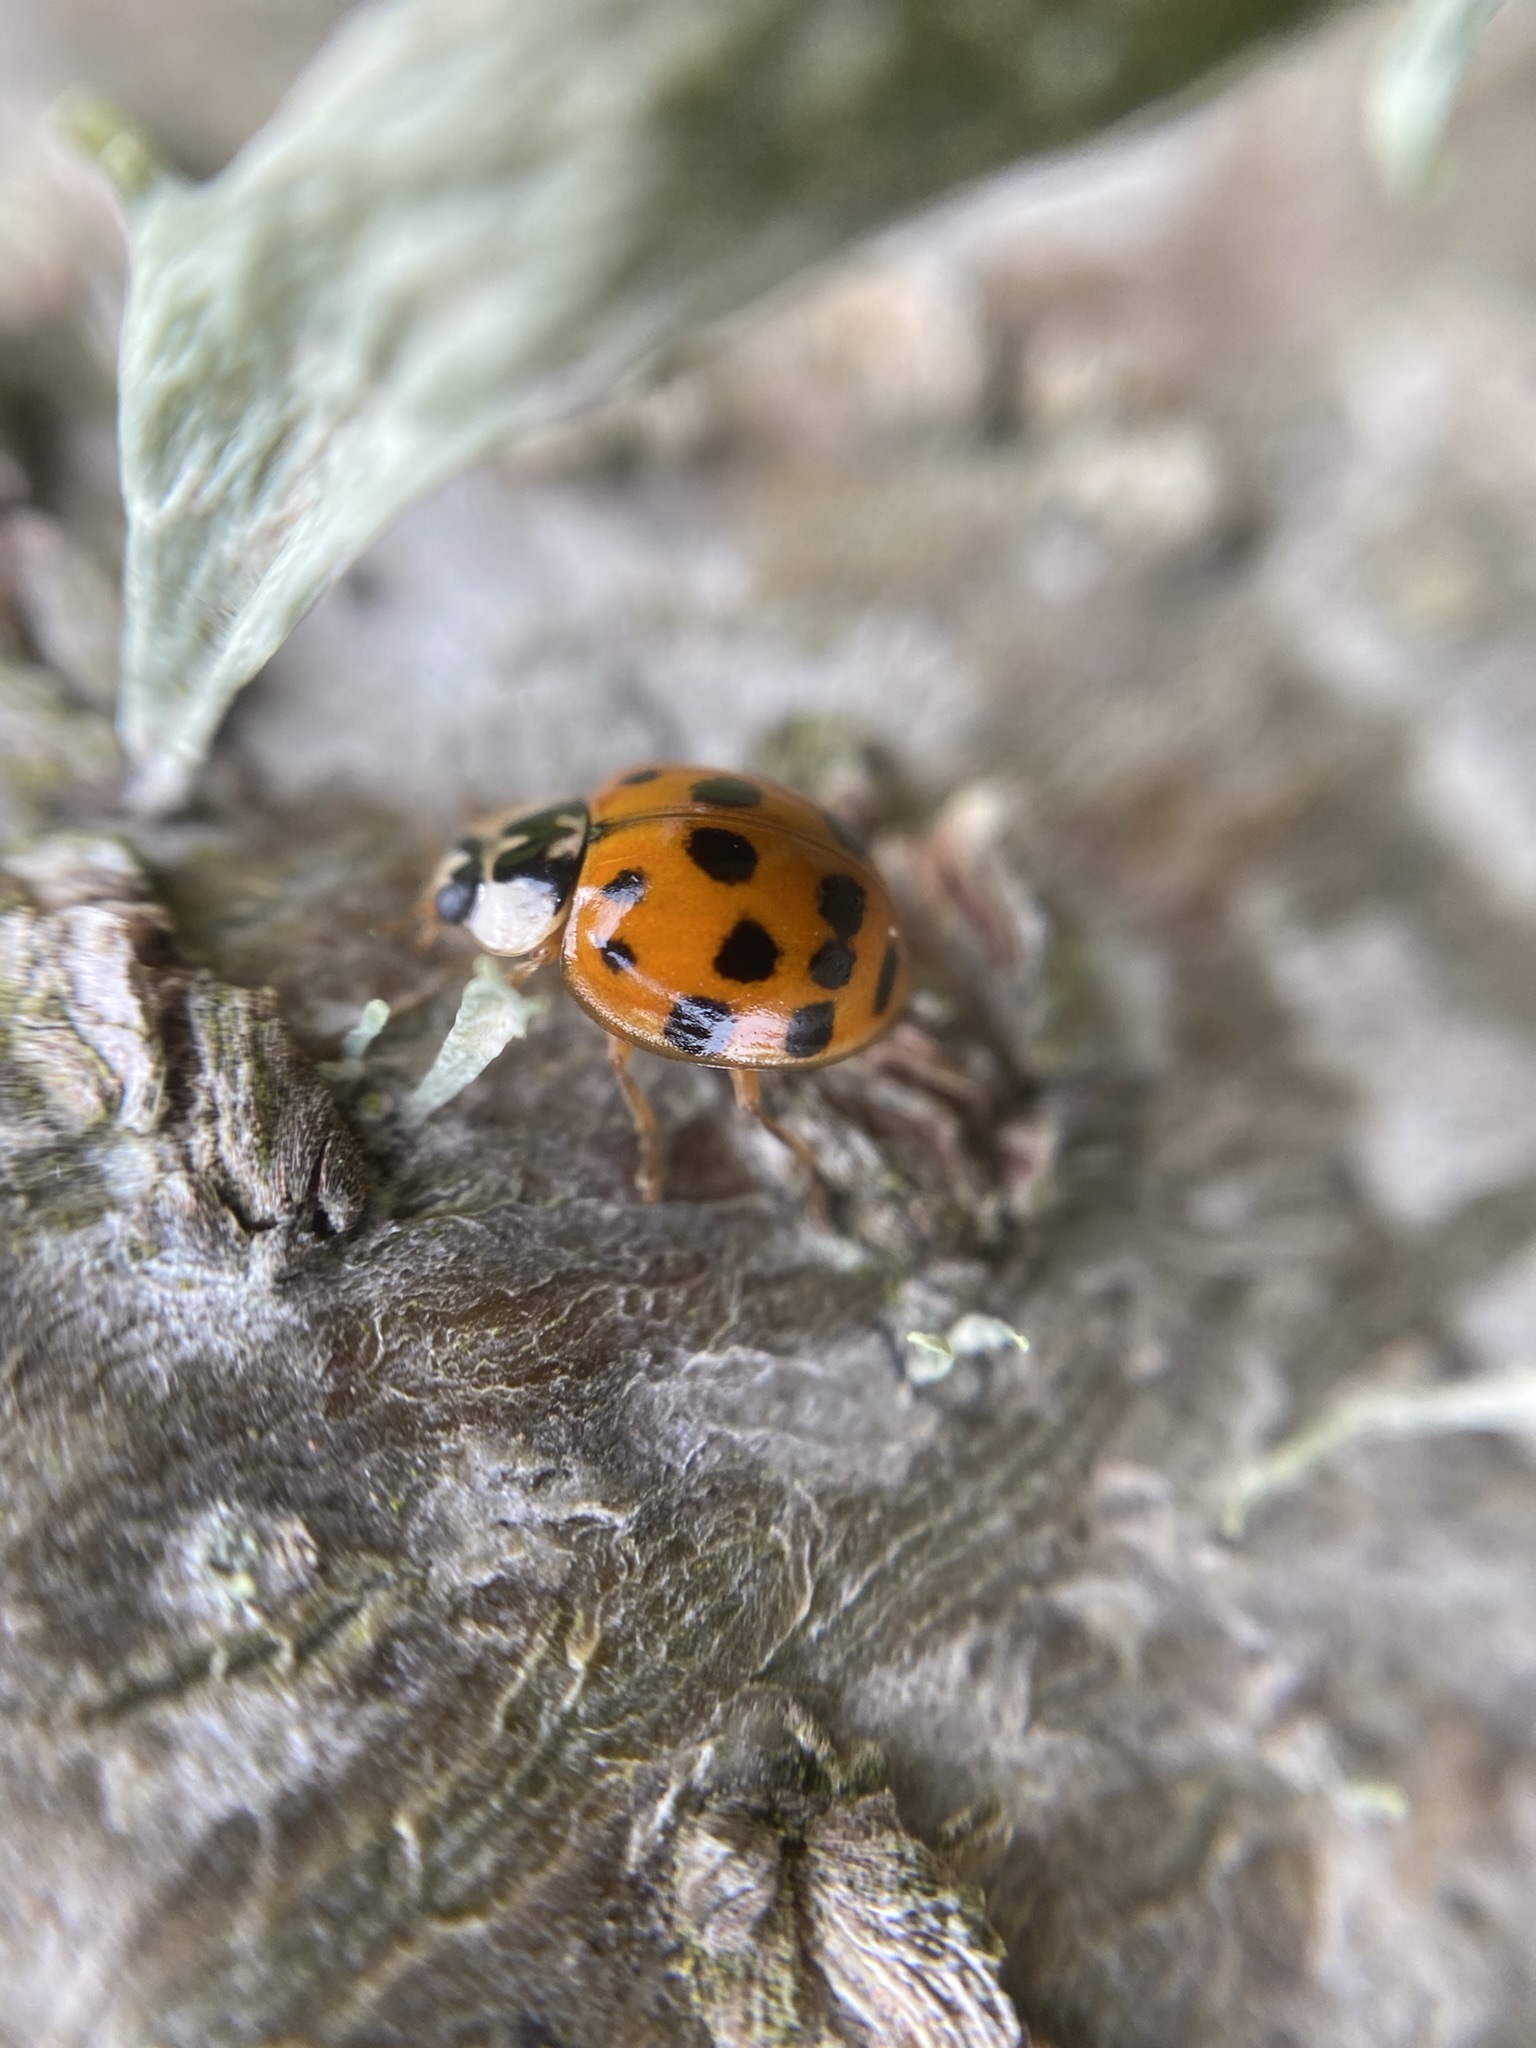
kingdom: Animalia
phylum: Arthropoda
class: Insecta
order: Coleoptera
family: Coccinellidae
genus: Harmonia
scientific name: Harmonia axyridis
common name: Harlequin ladybird
